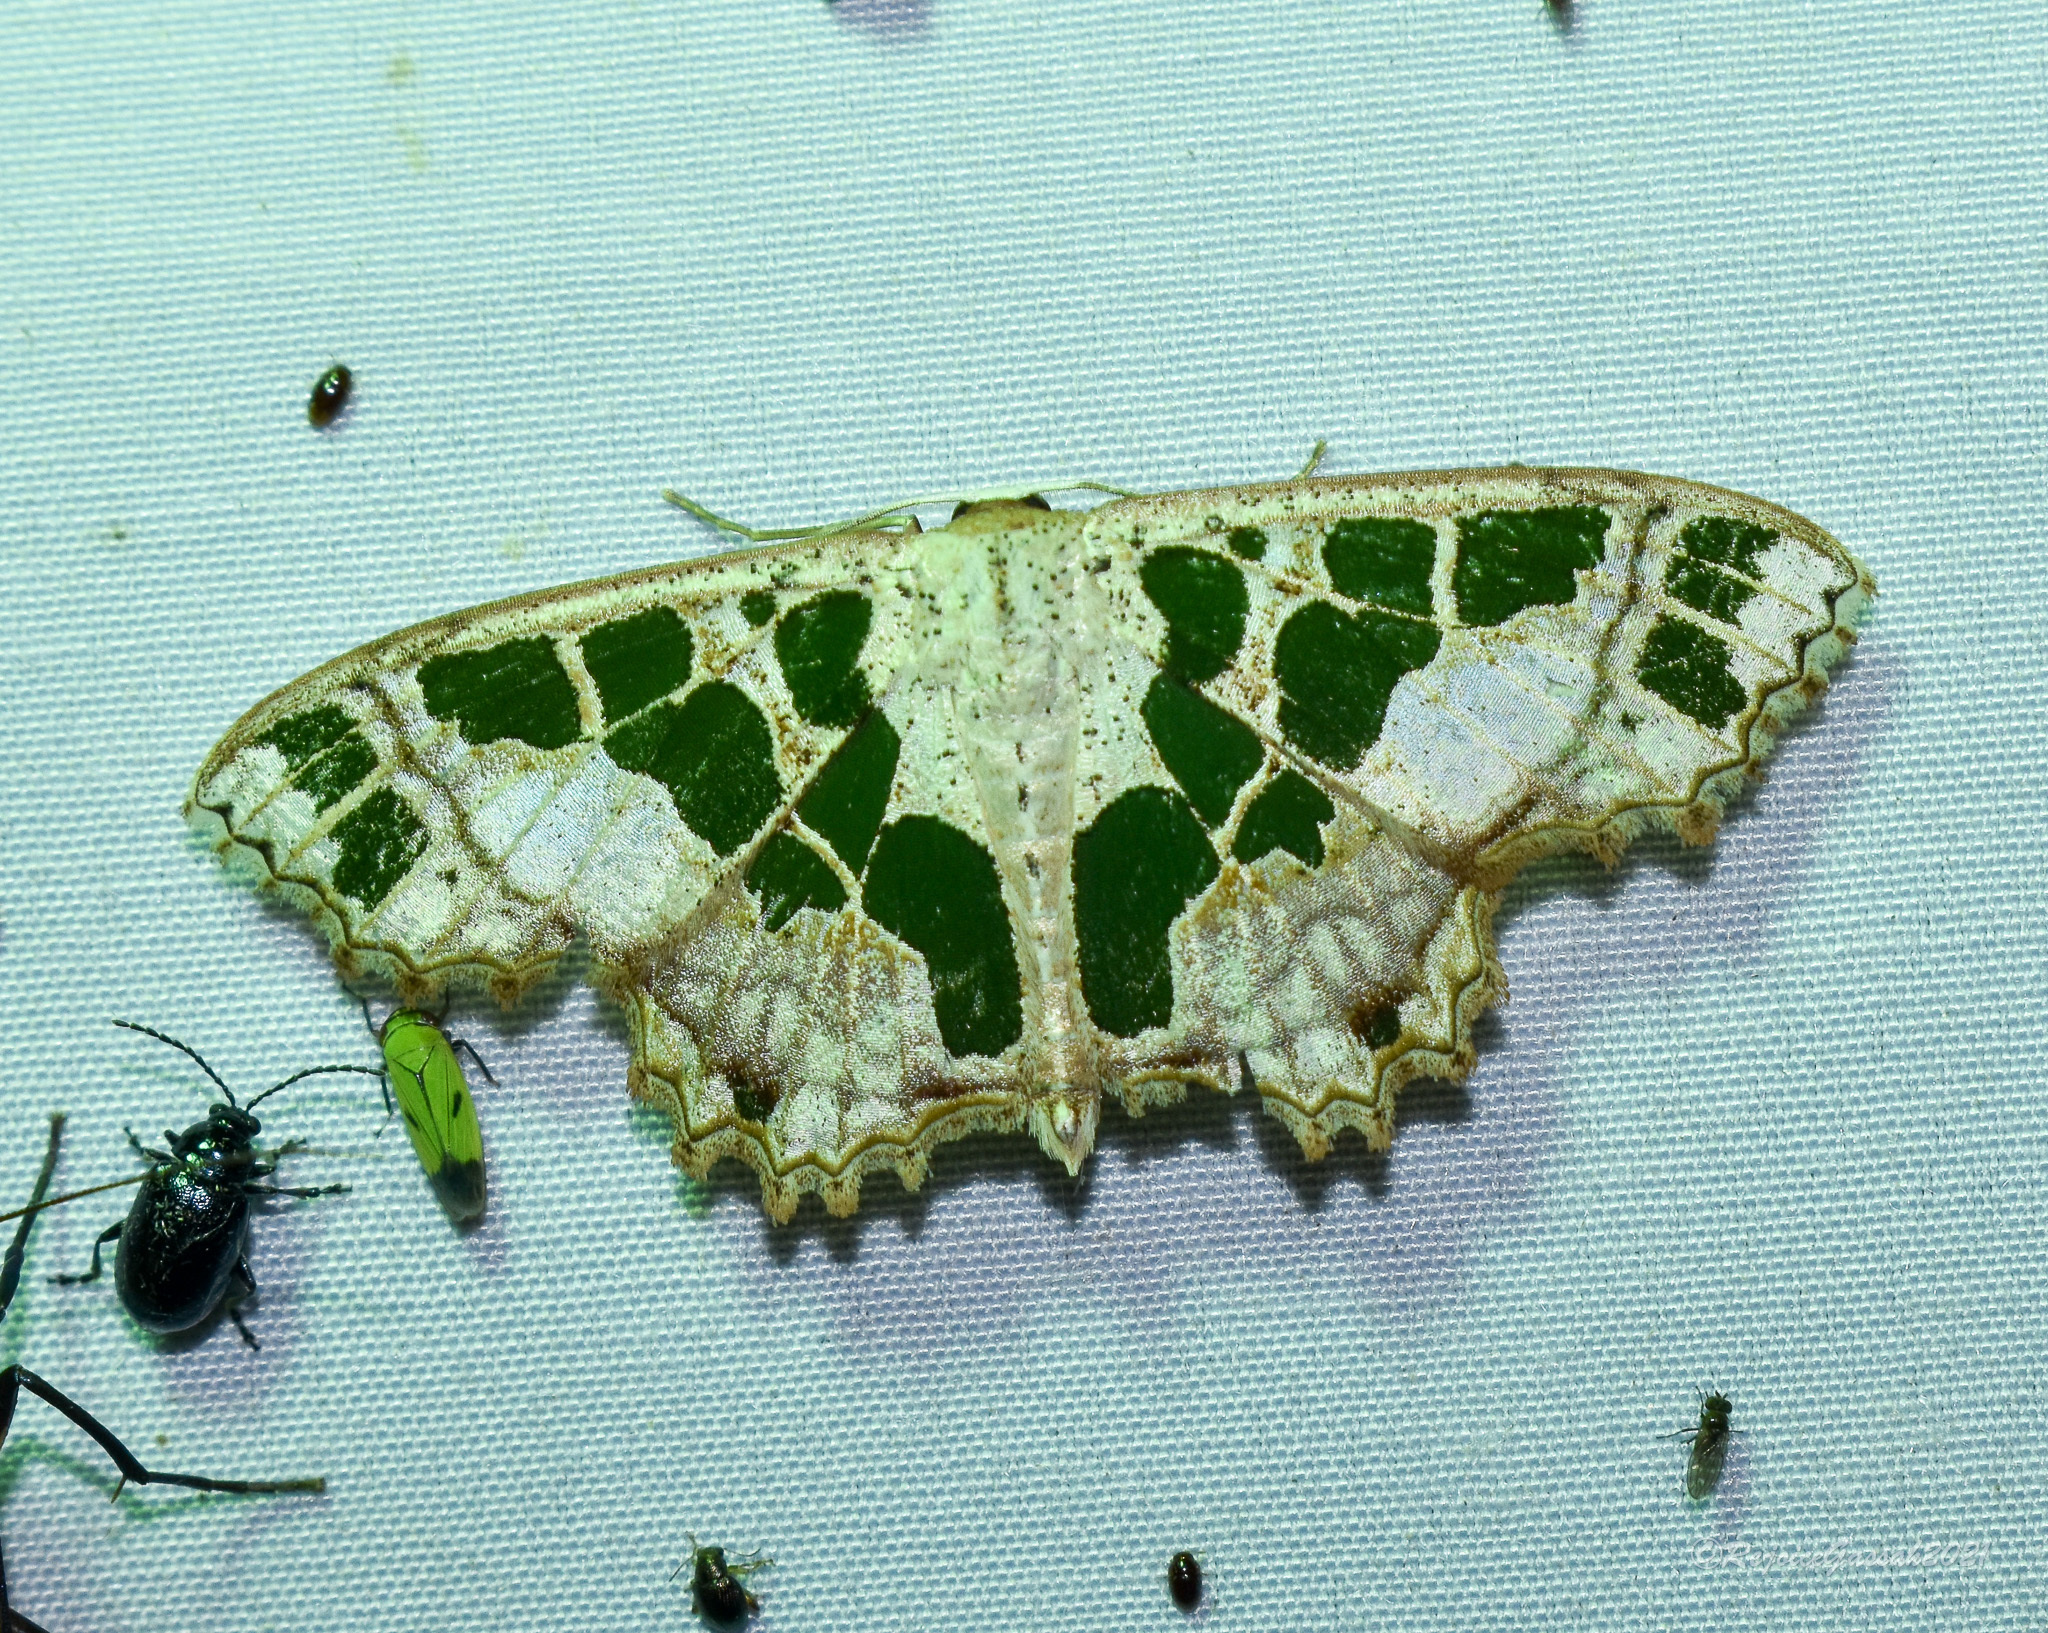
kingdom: Animalia
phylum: Arthropoda
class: Insecta
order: Lepidoptera
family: Geometridae
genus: Scopula
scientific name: Scopula divisaria
